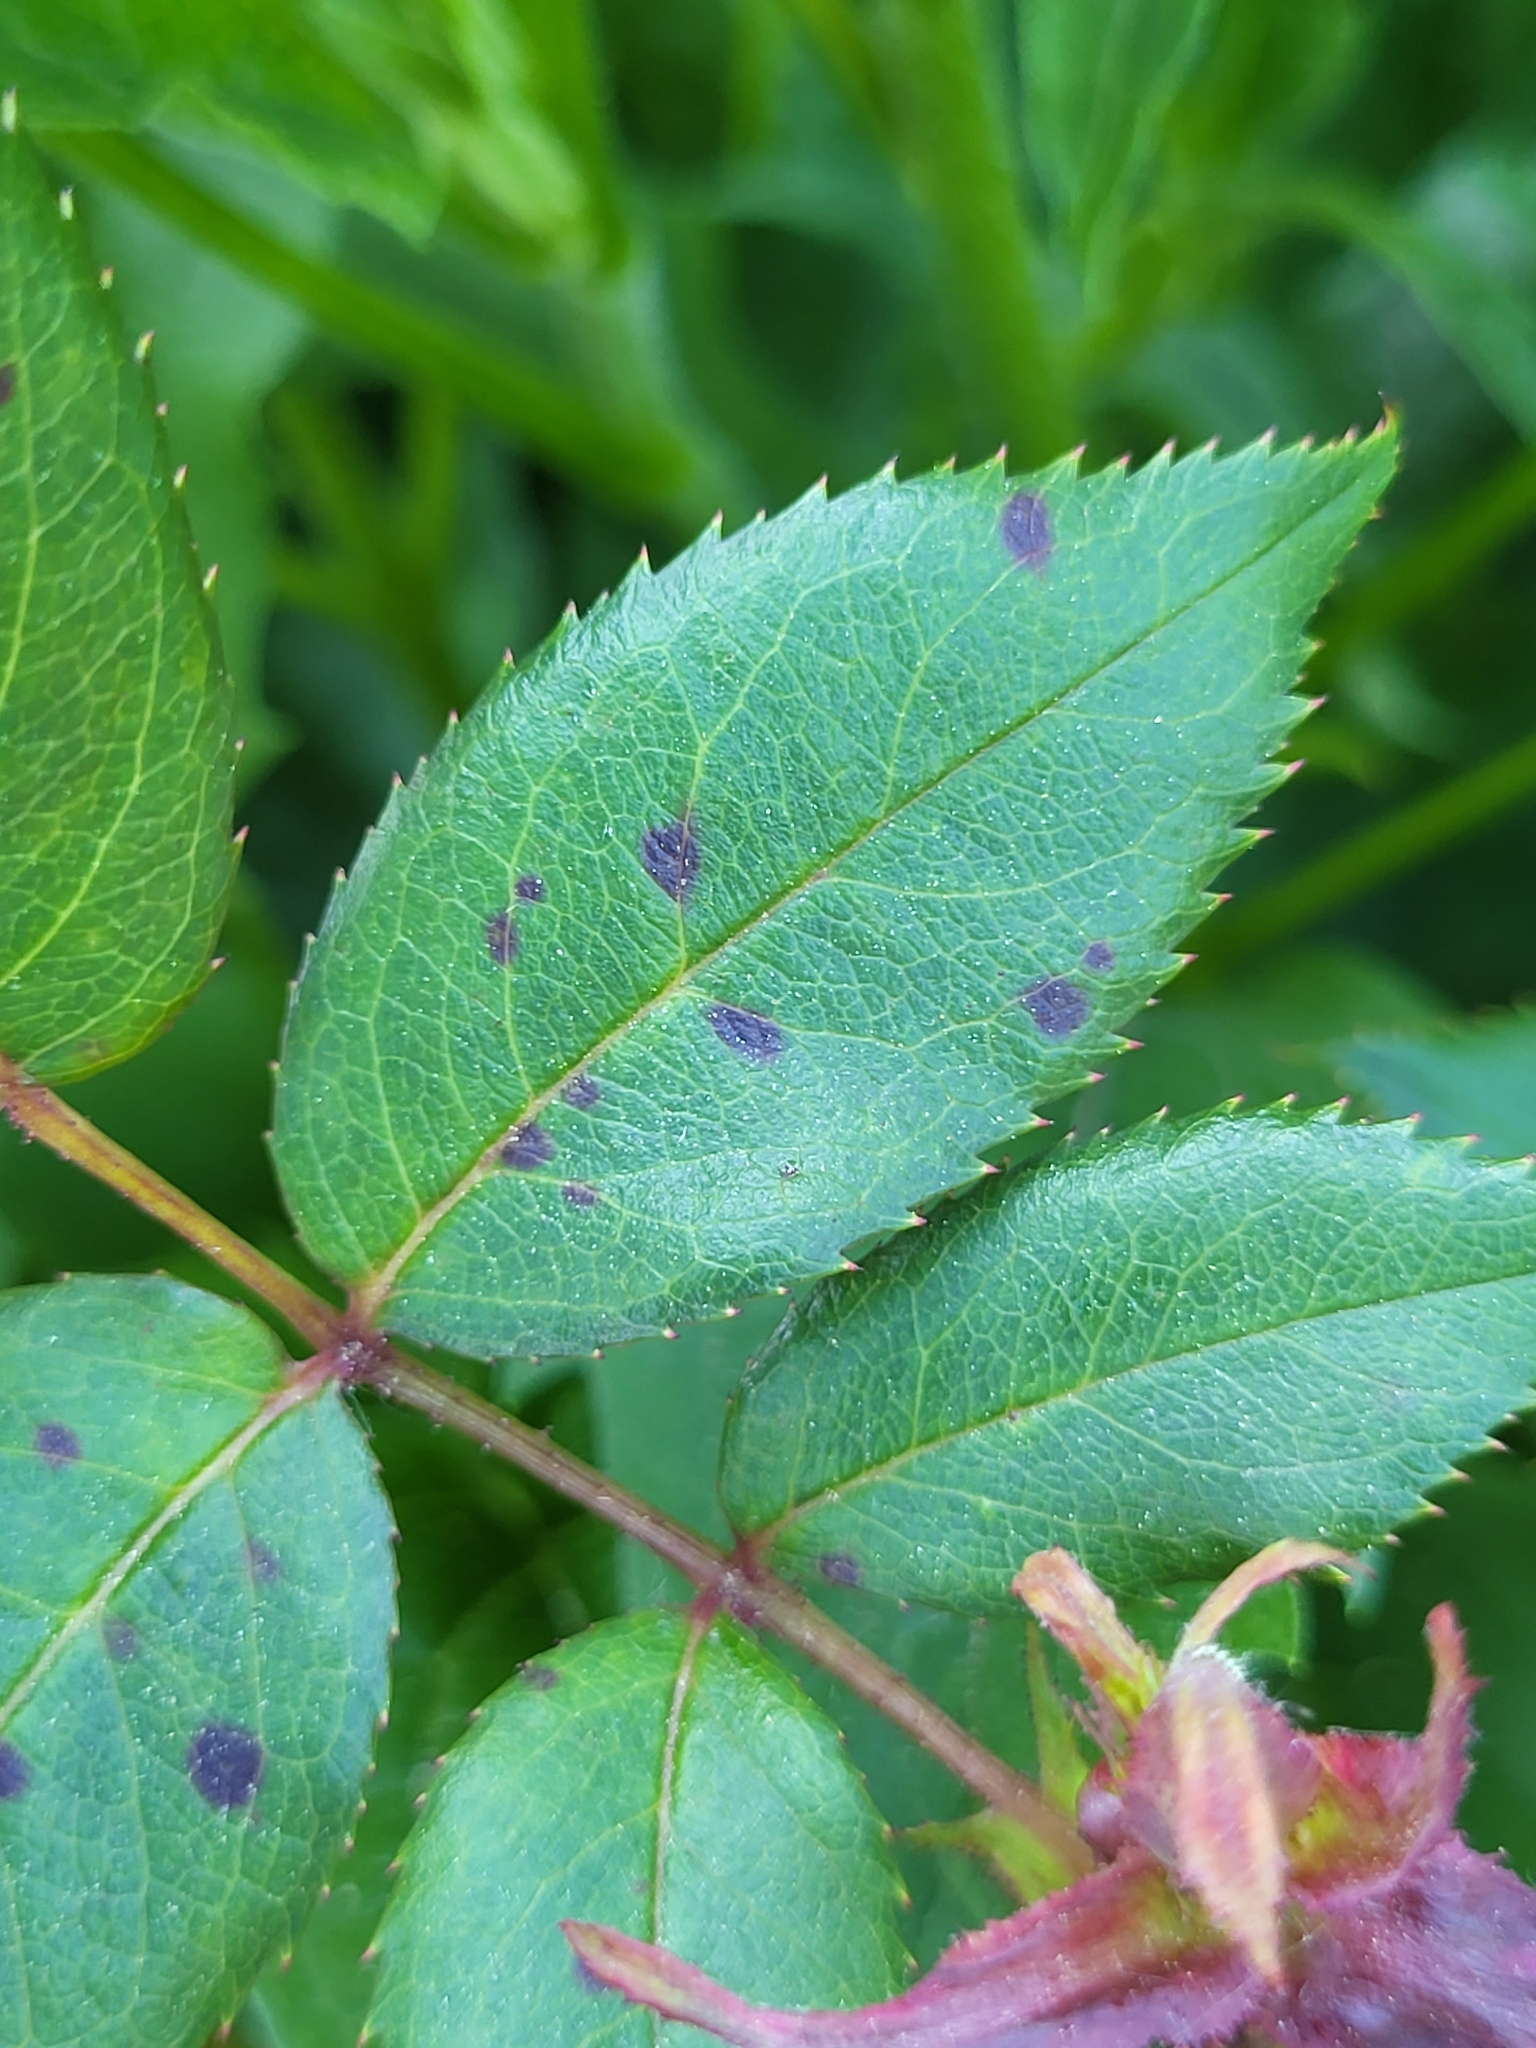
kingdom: Fungi
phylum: Ascomycota
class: Leotiomycetes
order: Helotiales
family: Drepanopezizaceae
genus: Diplocarpon
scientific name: Diplocarpon rosae
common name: Rose black-spot
